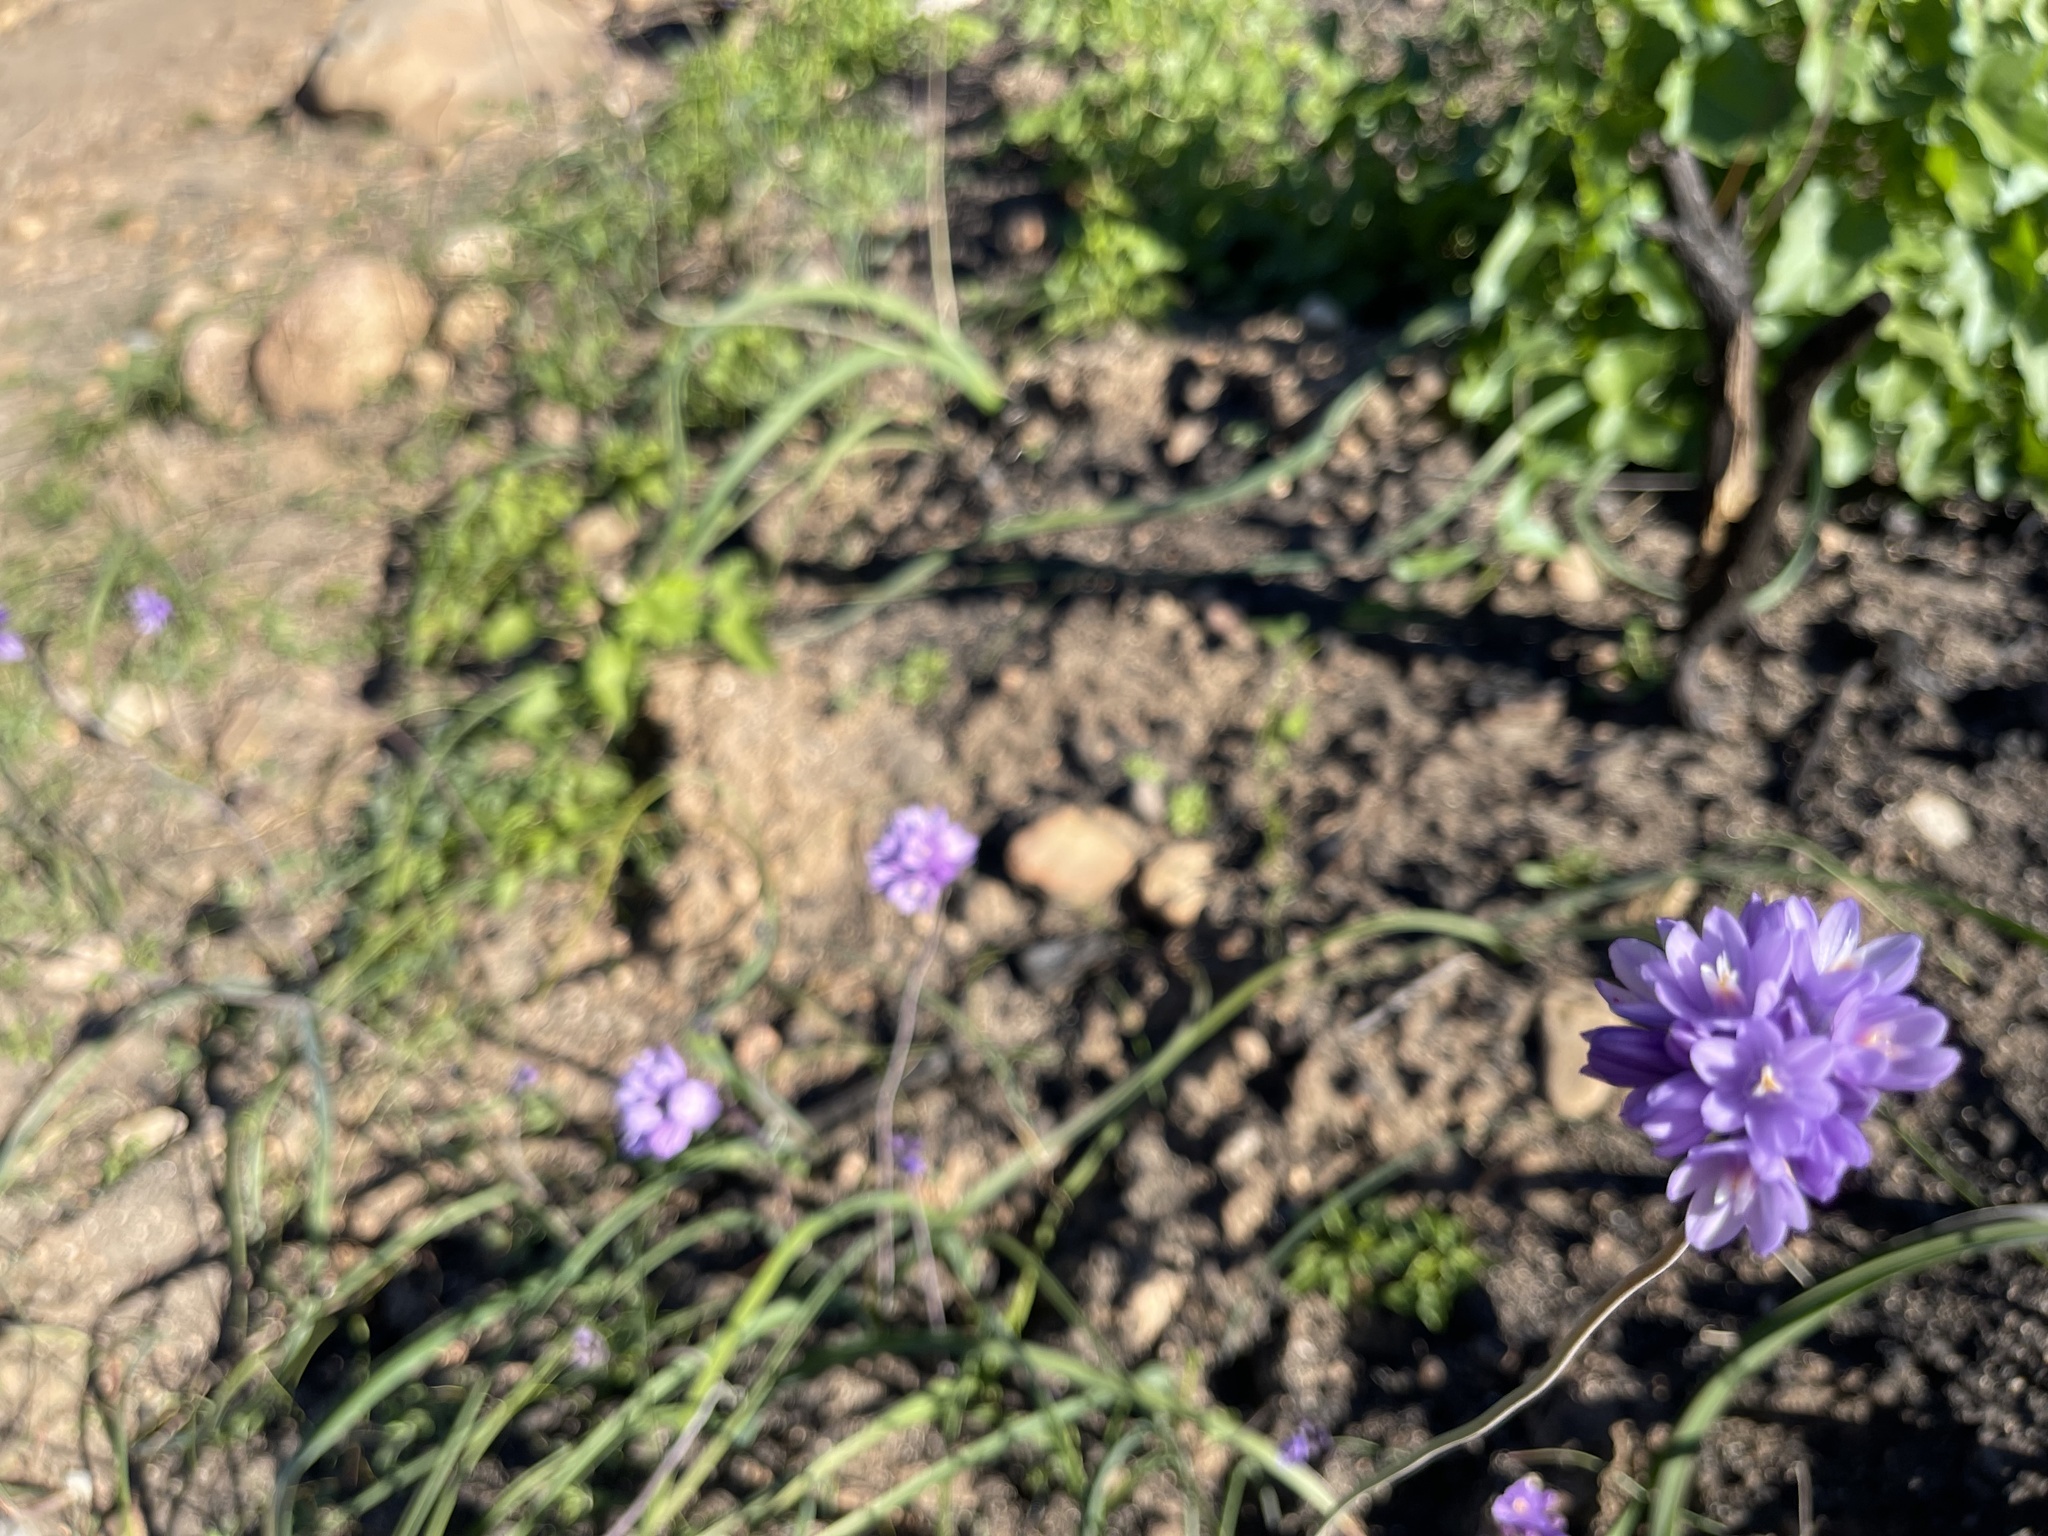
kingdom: Plantae
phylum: Tracheophyta
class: Liliopsida
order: Asparagales
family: Asparagaceae
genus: Dipterostemon
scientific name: Dipterostemon capitatus
